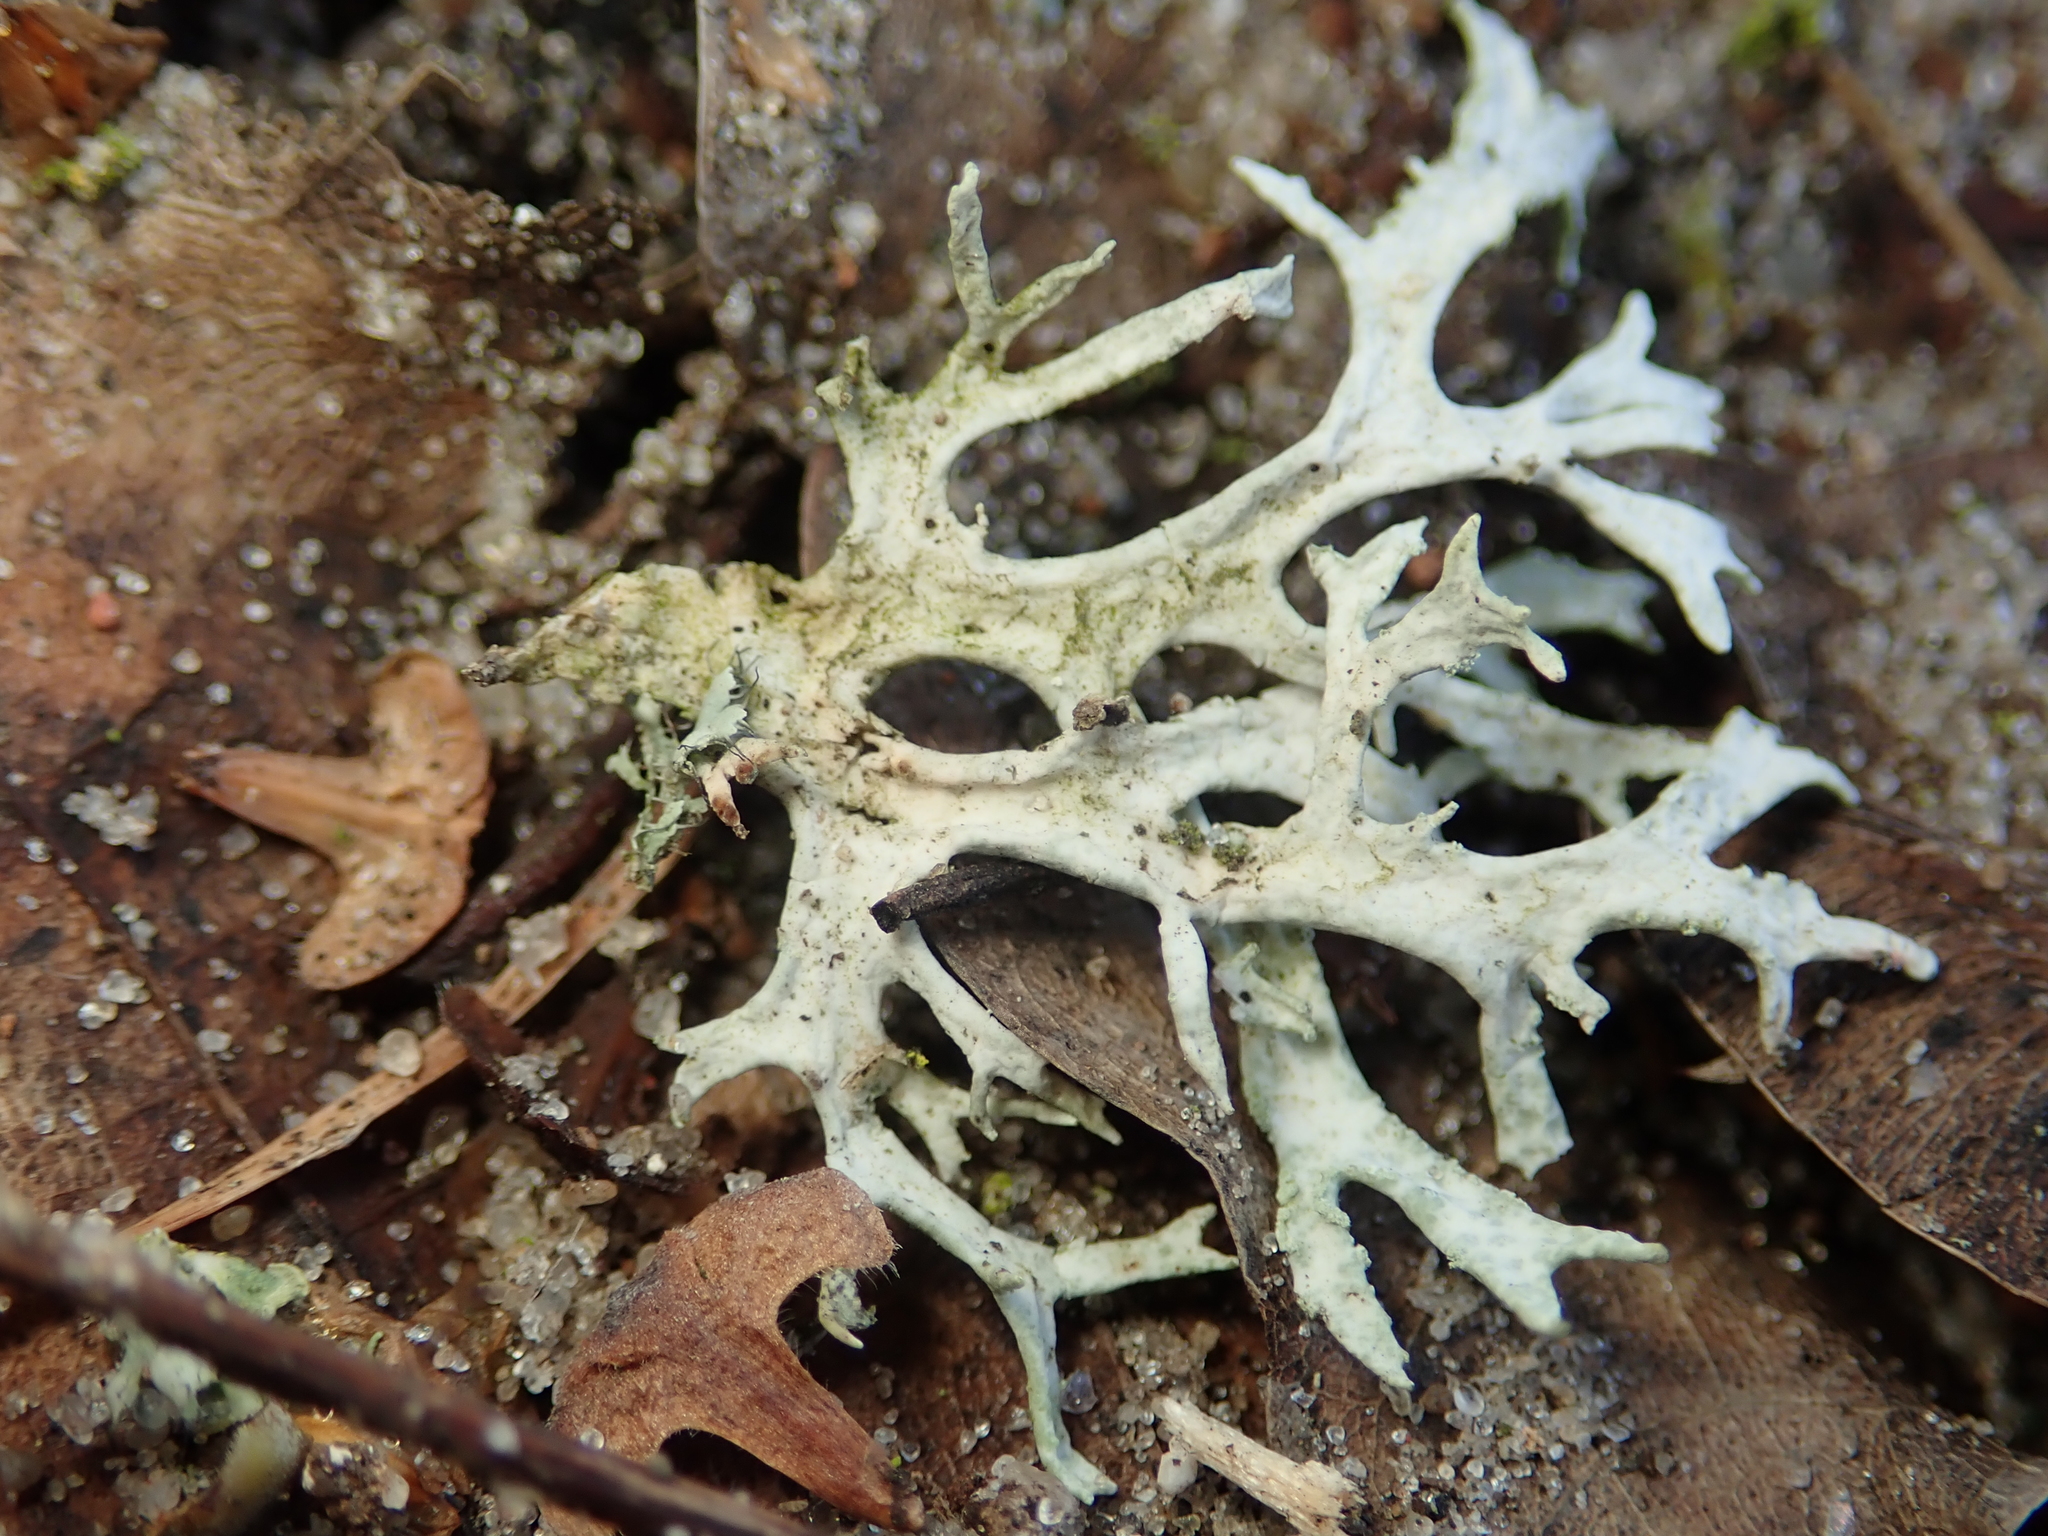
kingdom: Fungi
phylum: Ascomycota
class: Lecanoromycetes
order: Lecanorales
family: Parmeliaceae
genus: Evernia
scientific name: Evernia prunastri
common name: Oak moss
